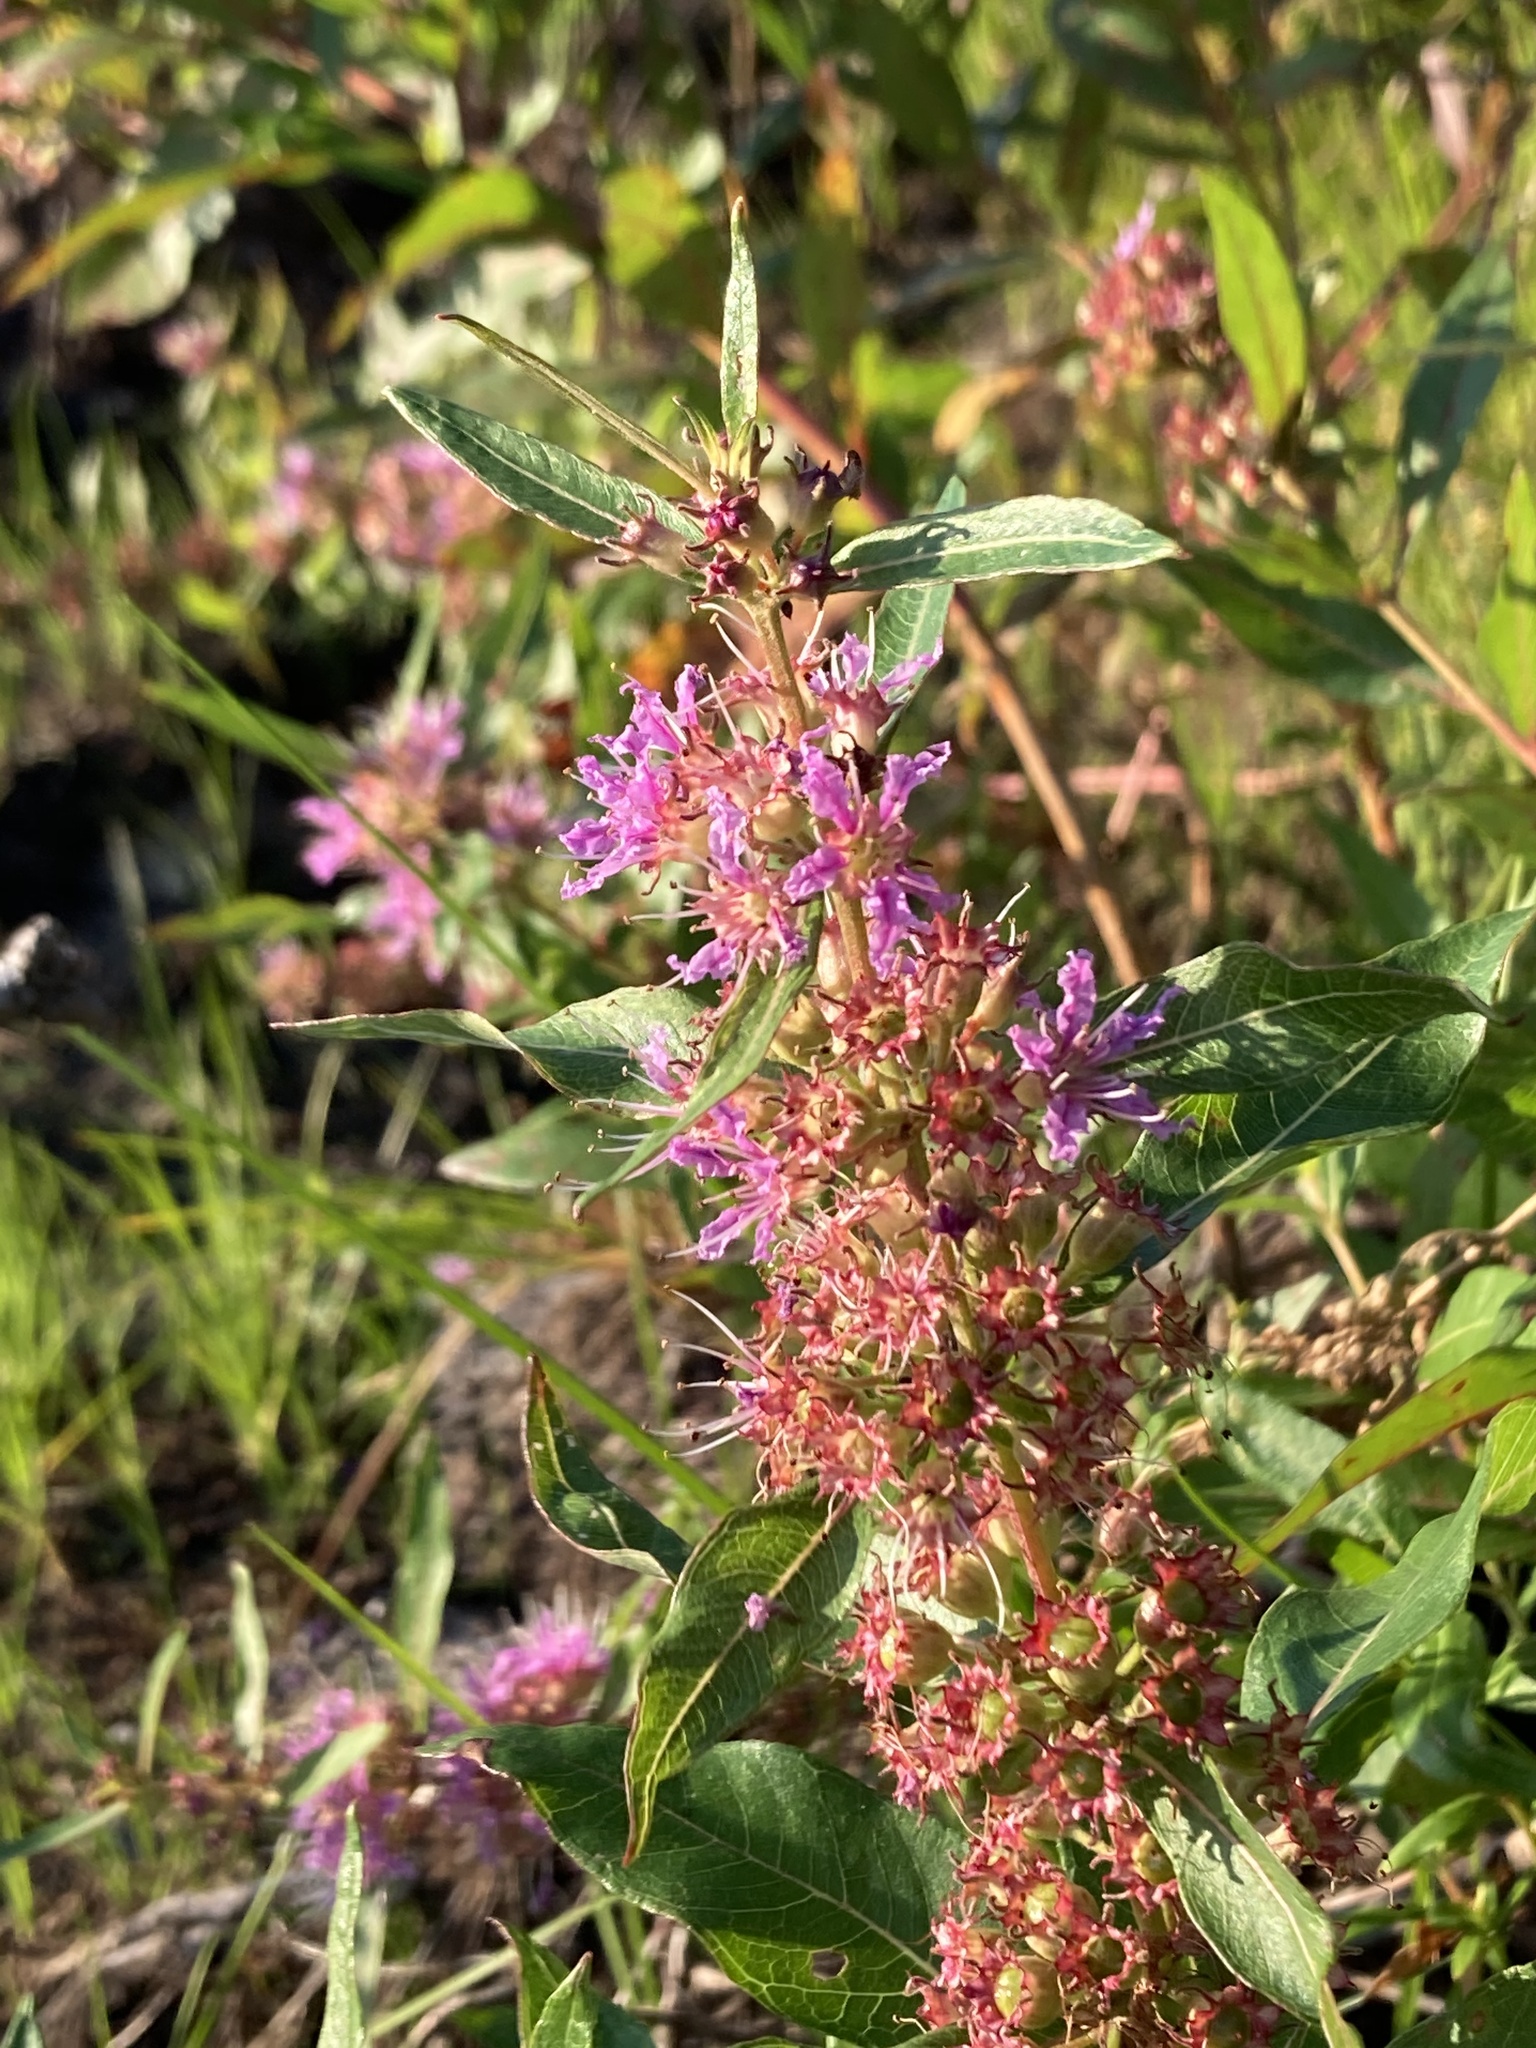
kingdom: Plantae
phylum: Tracheophyta
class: Magnoliopsida
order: Myrtales
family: Lythraceae
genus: Decodon
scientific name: Decodon verticillatus
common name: Hairy swamp loosestrife
